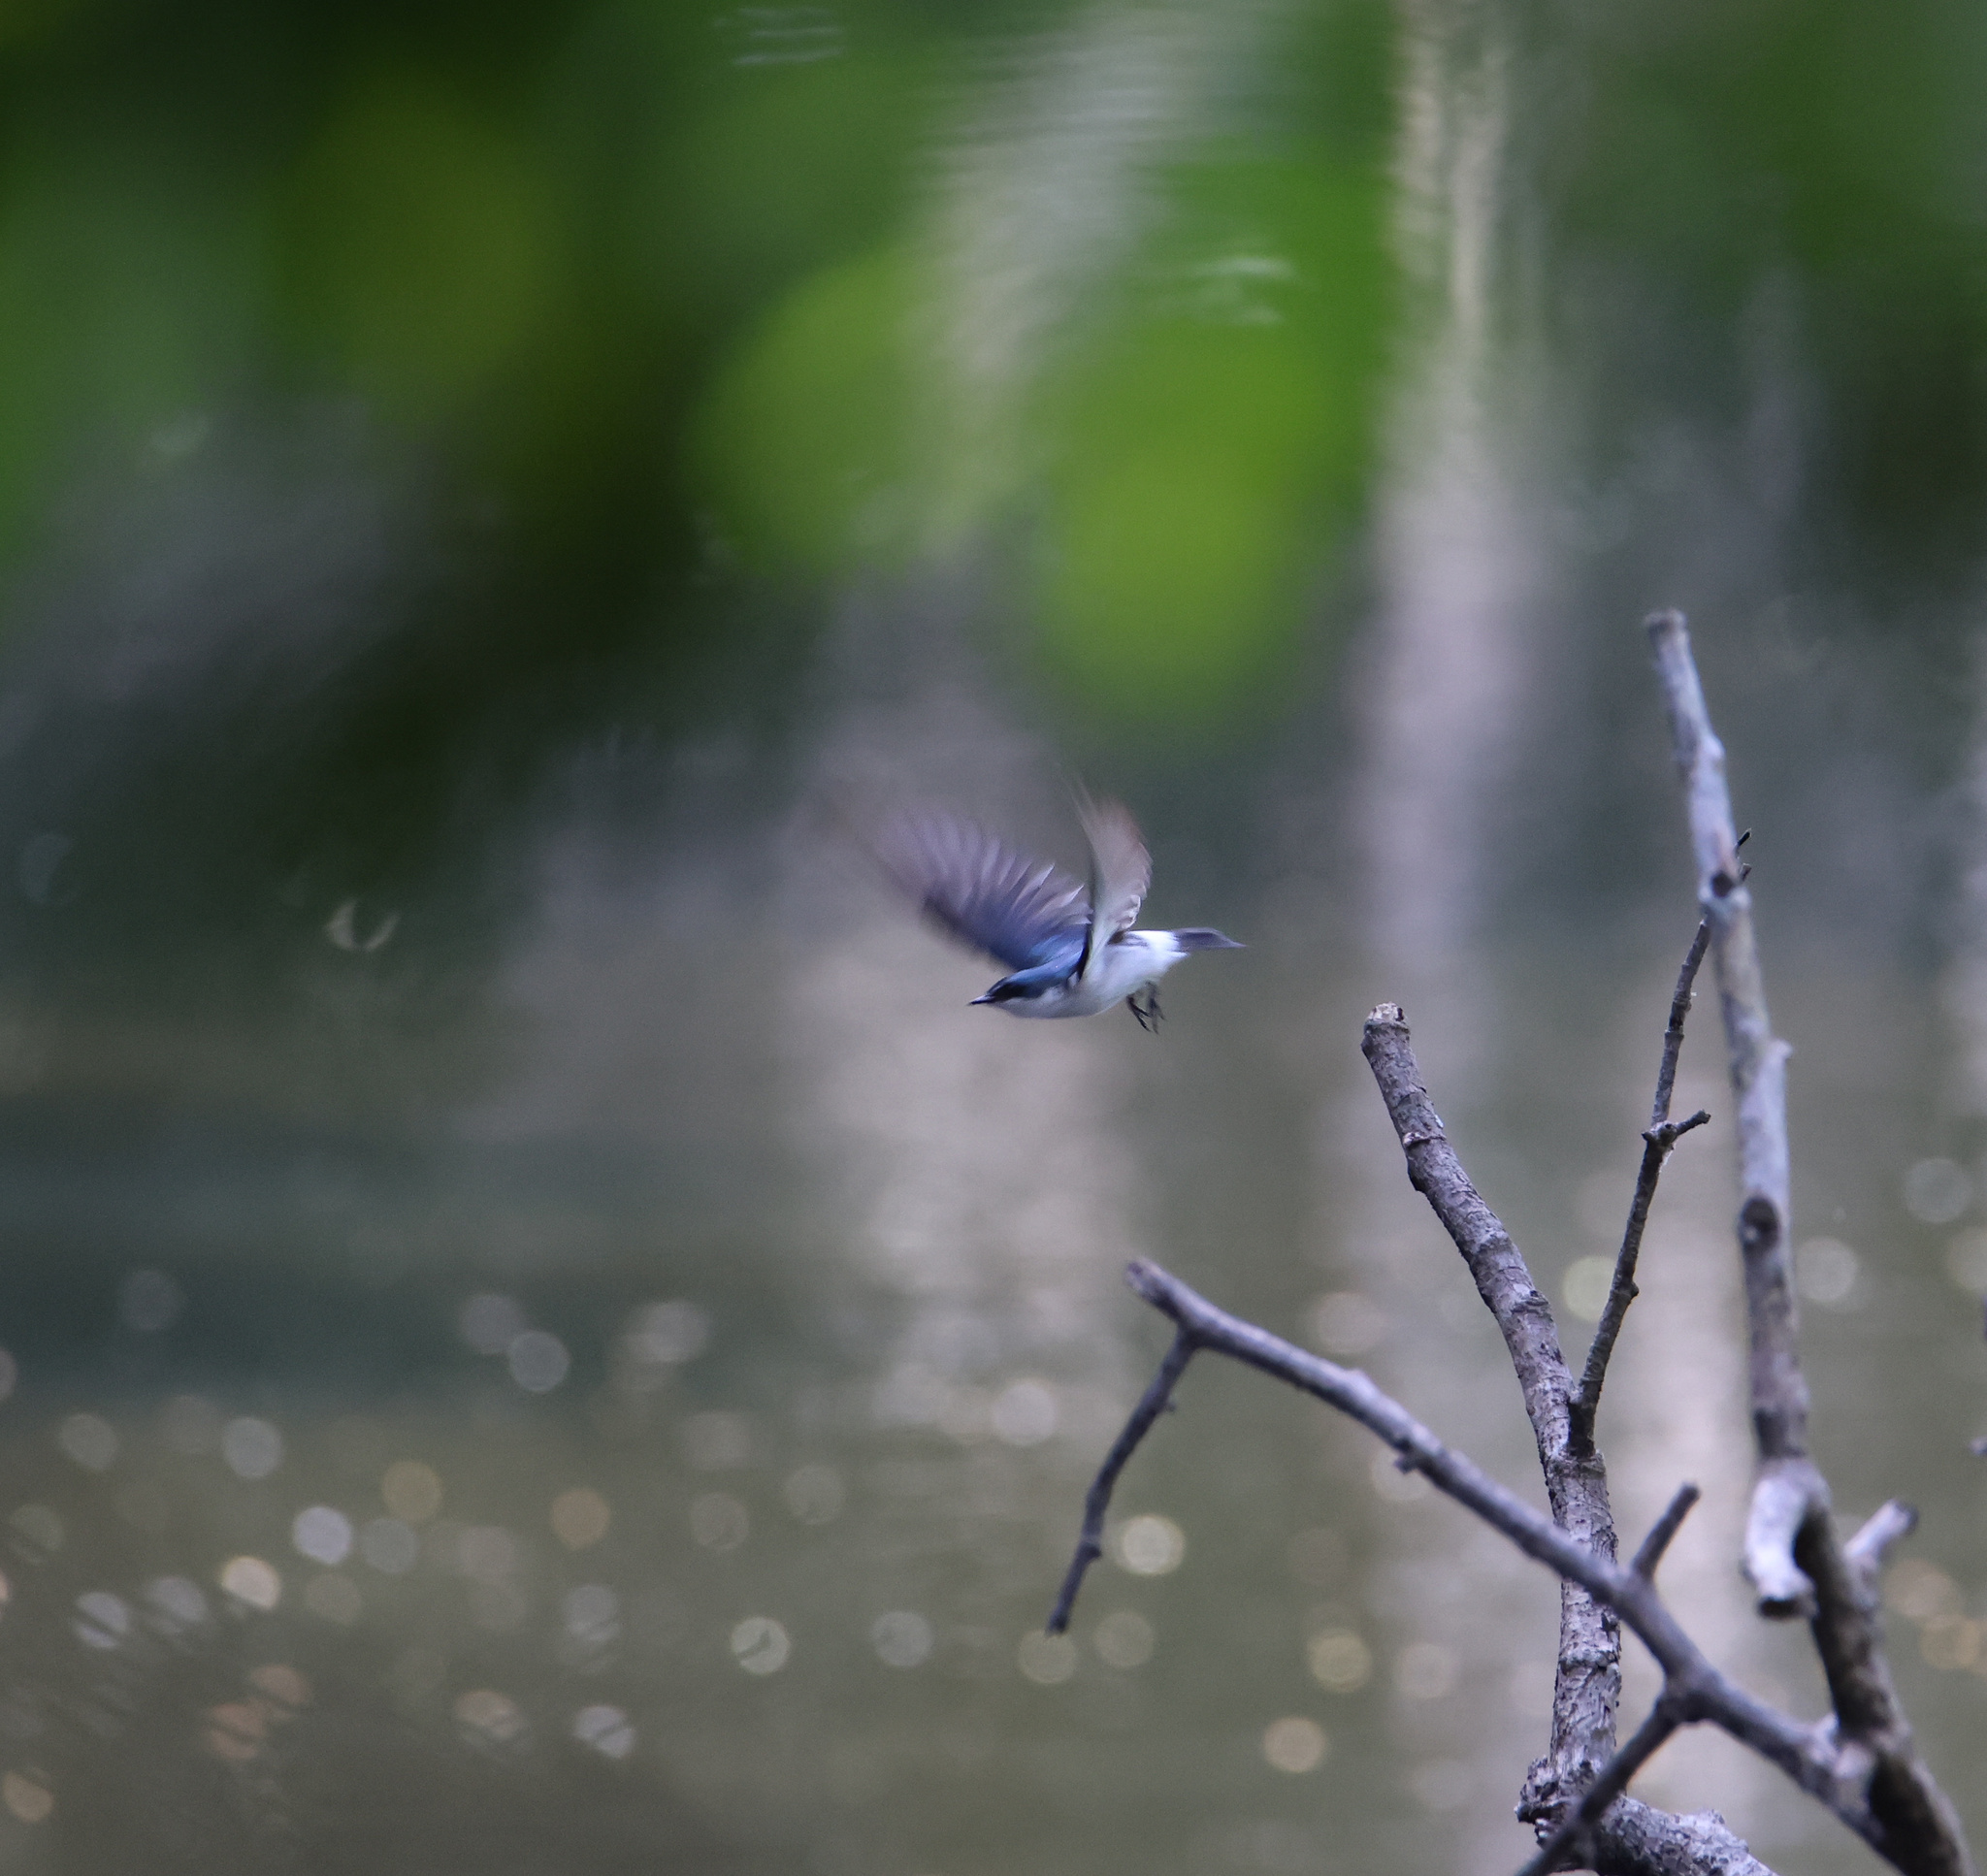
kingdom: Animalia
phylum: Chordata
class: Aves
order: Passeriformes
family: Hirundinidae
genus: Tachycineta
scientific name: Tachycineta albilinea
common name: Mangrove swallow
